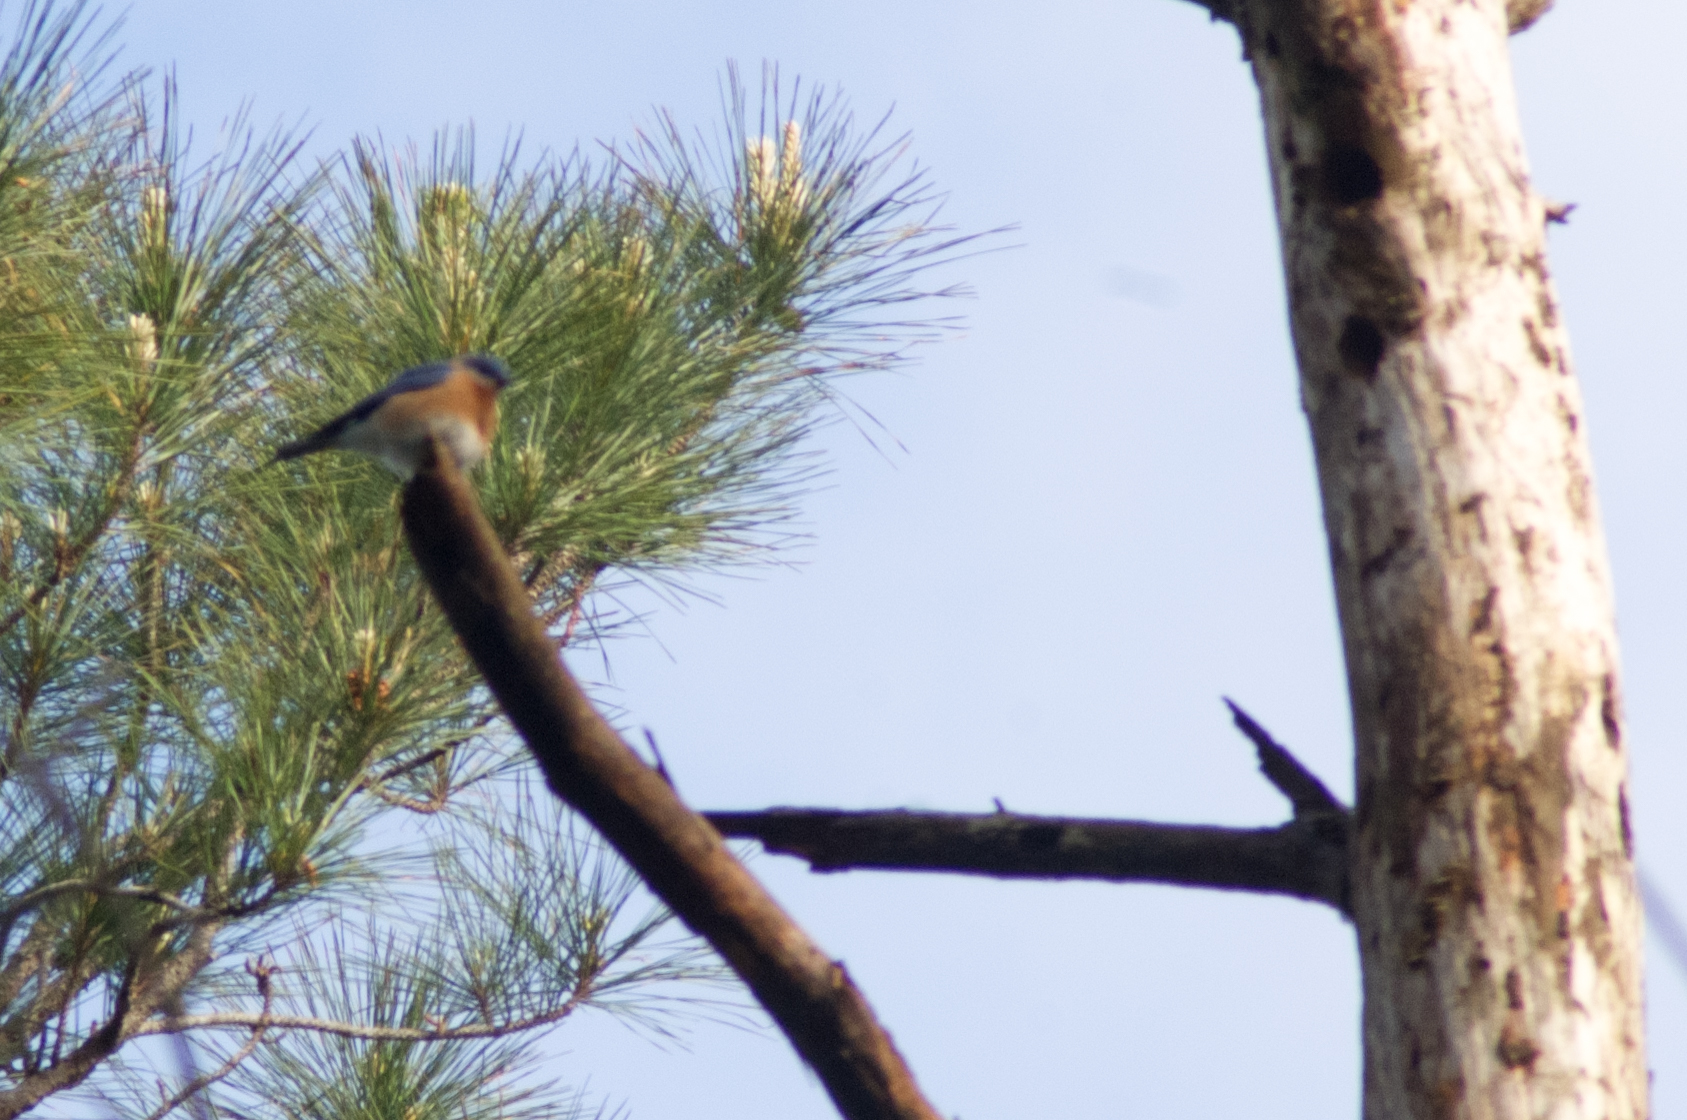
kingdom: Animalia
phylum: Chordata
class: Aves
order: Passeriformes
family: Turdidae
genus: Sialia
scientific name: Sialia sialis
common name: Eastern bluebird
